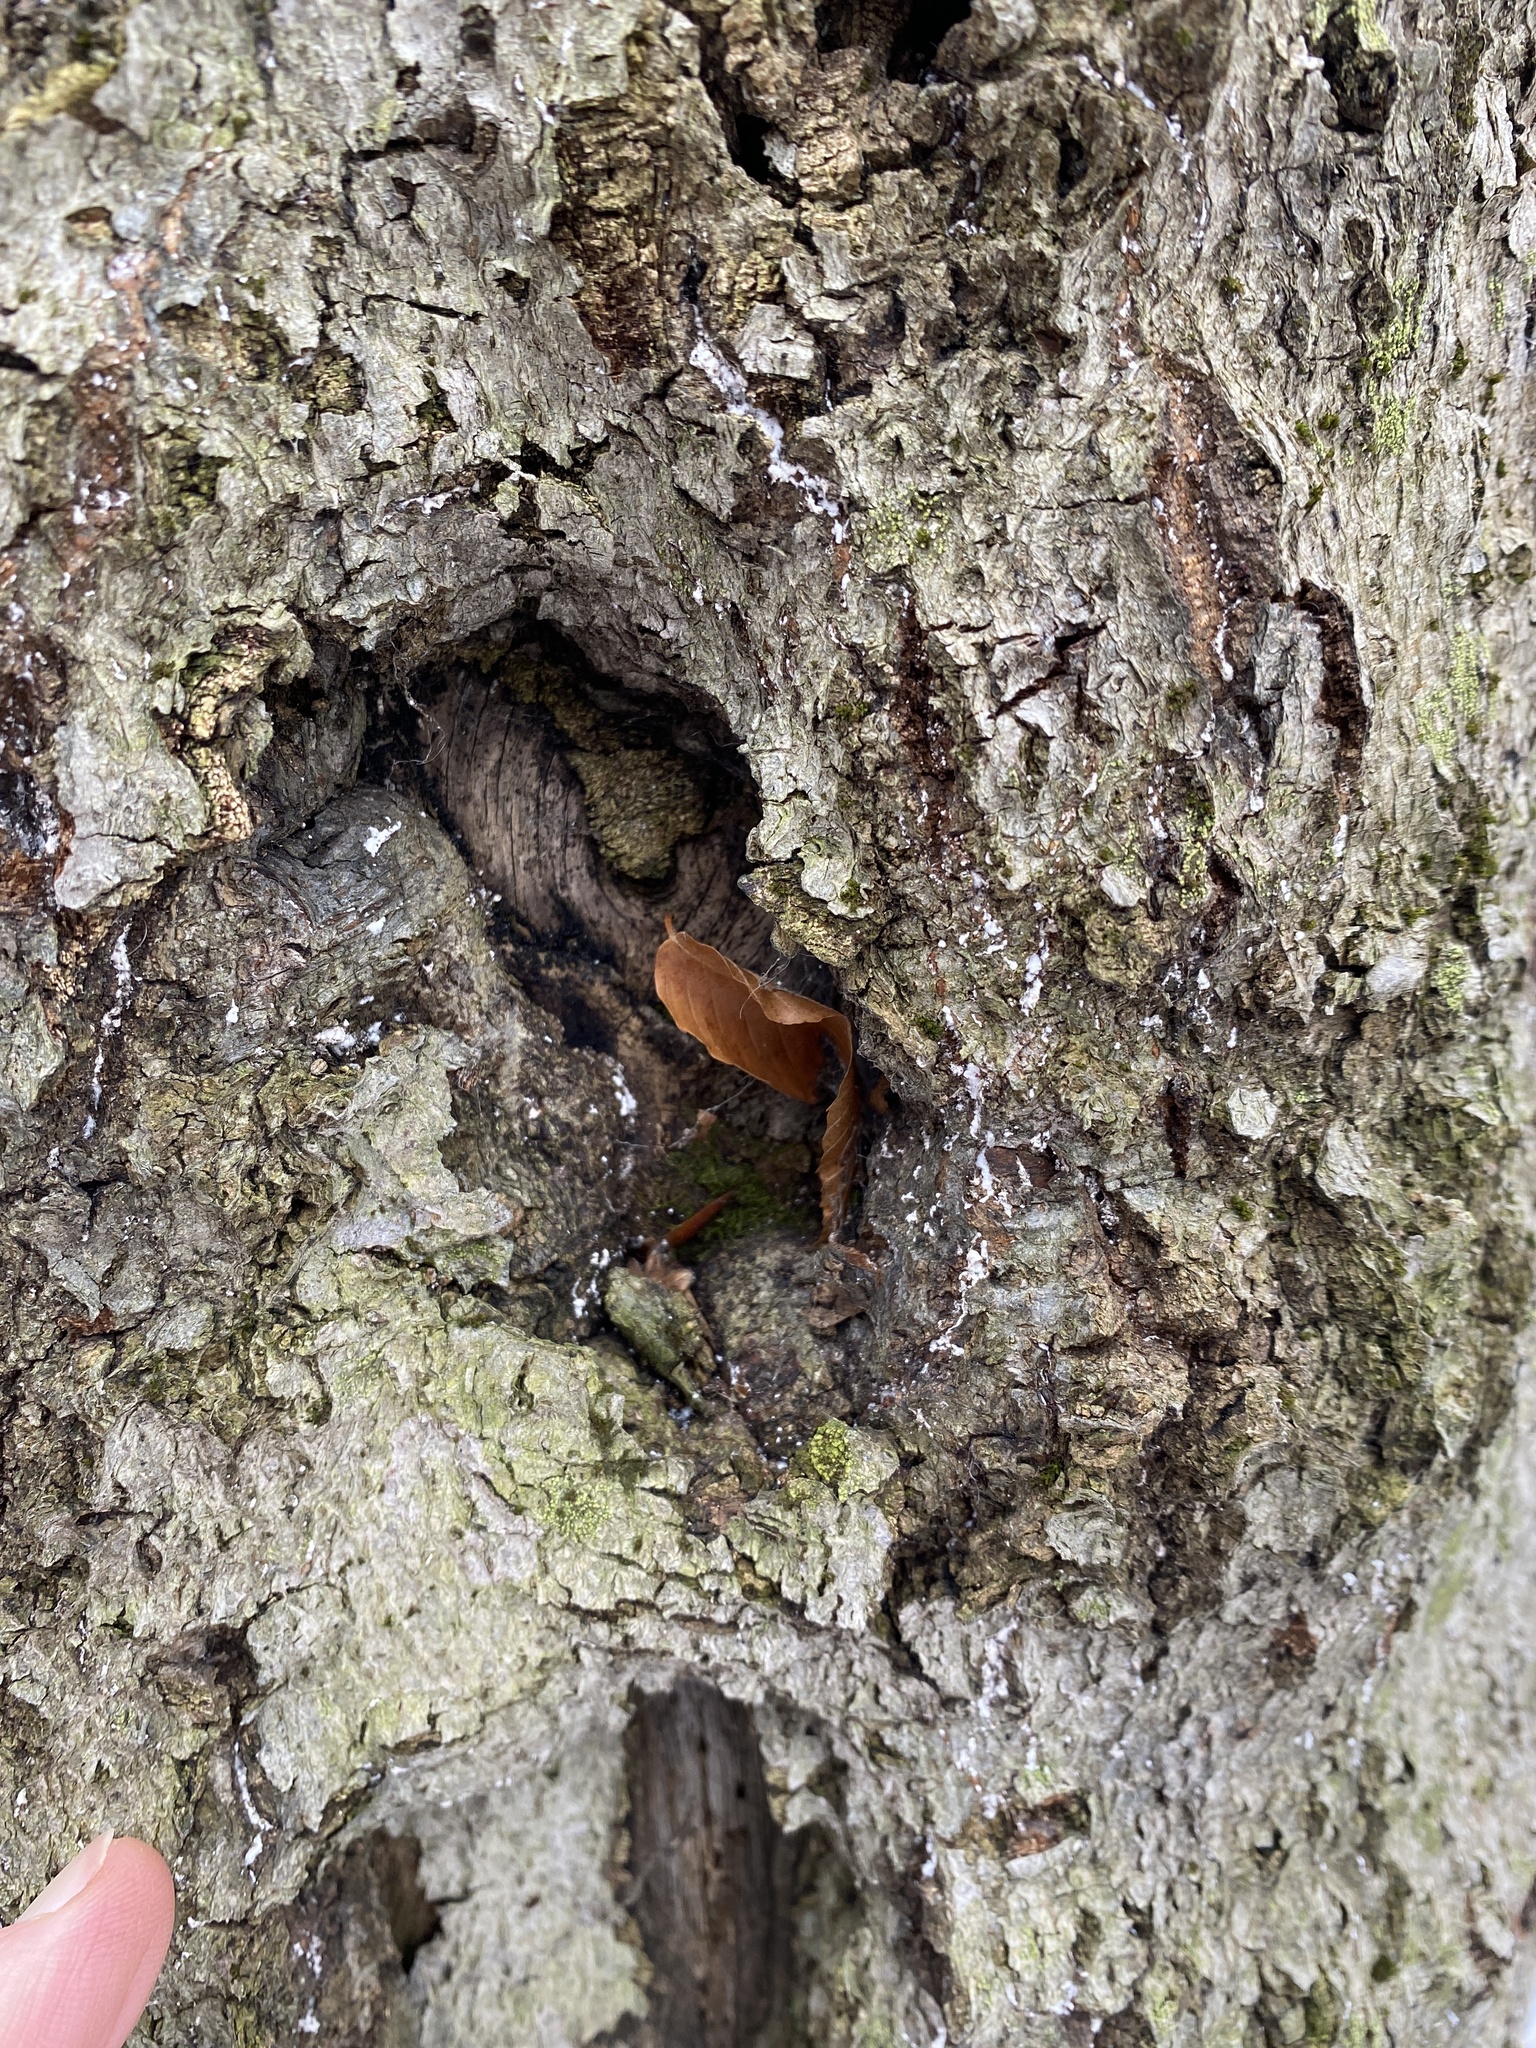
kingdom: Animalia
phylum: Arthropoda
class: Insecta
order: Hemiptera
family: Eriococcidae
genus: Cryptococcus
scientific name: Cryptococcus fagisuga
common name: Beech scale
